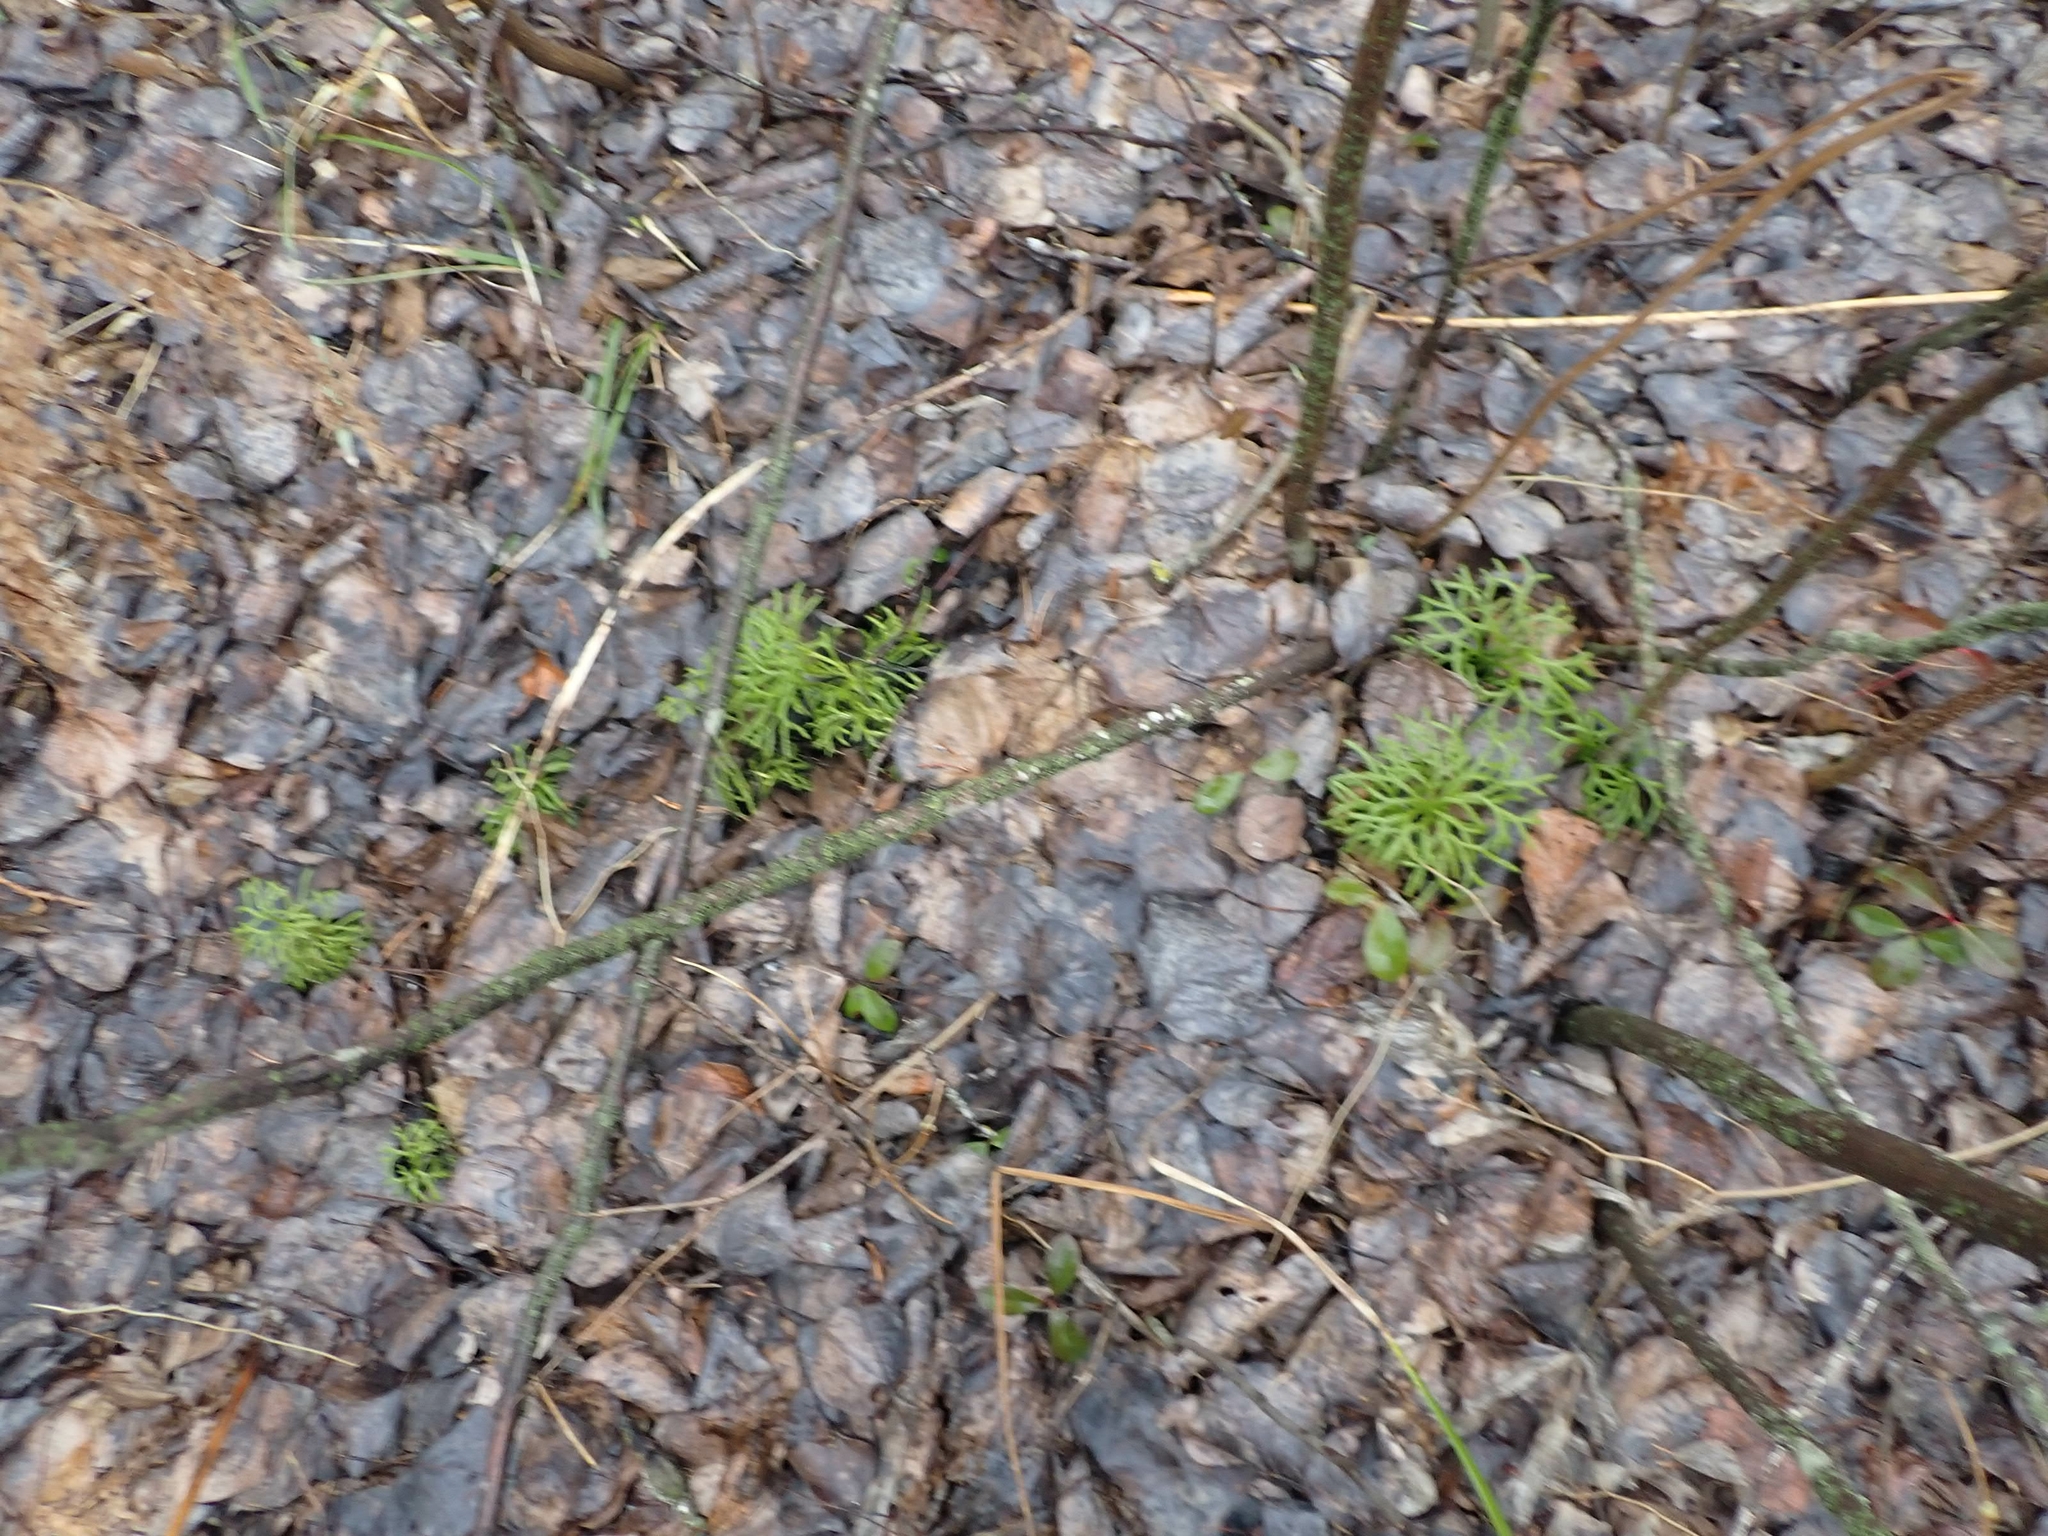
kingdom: Plantae
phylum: Tracheophyta
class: Lycopodiopsida
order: Lycopodiales
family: Lycopodiaceae
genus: Diphasiastrum
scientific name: Diphasiastrum complanatum
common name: Northern running-pine
